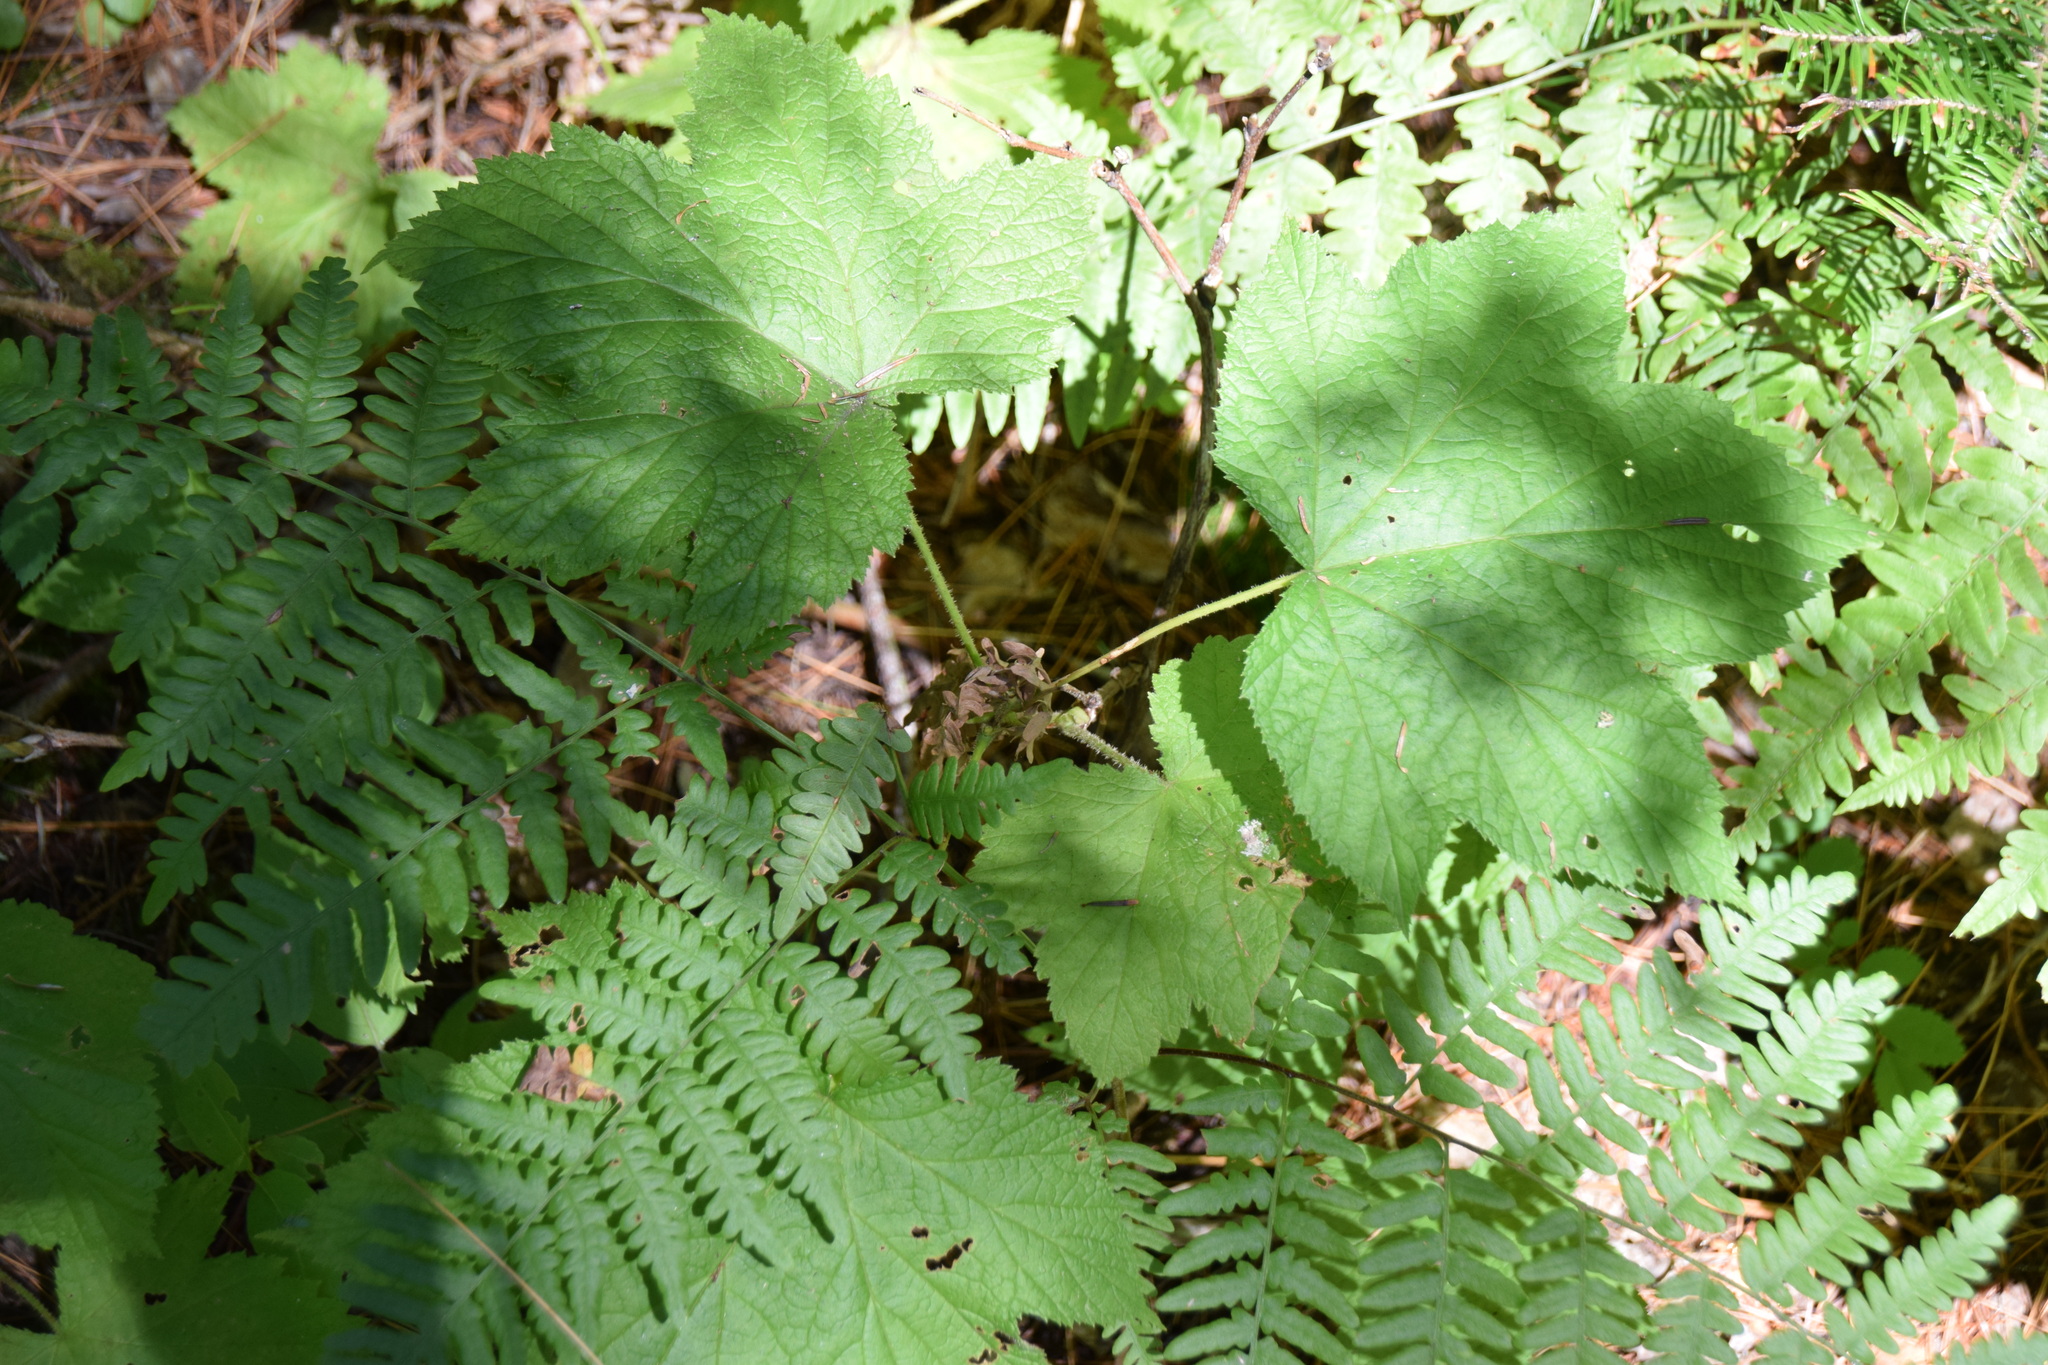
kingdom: Plantae
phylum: Tracheophyta
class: Magnoliopsida
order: Rosales
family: Rosaceae
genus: Rubus
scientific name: Rubus parviflorus
